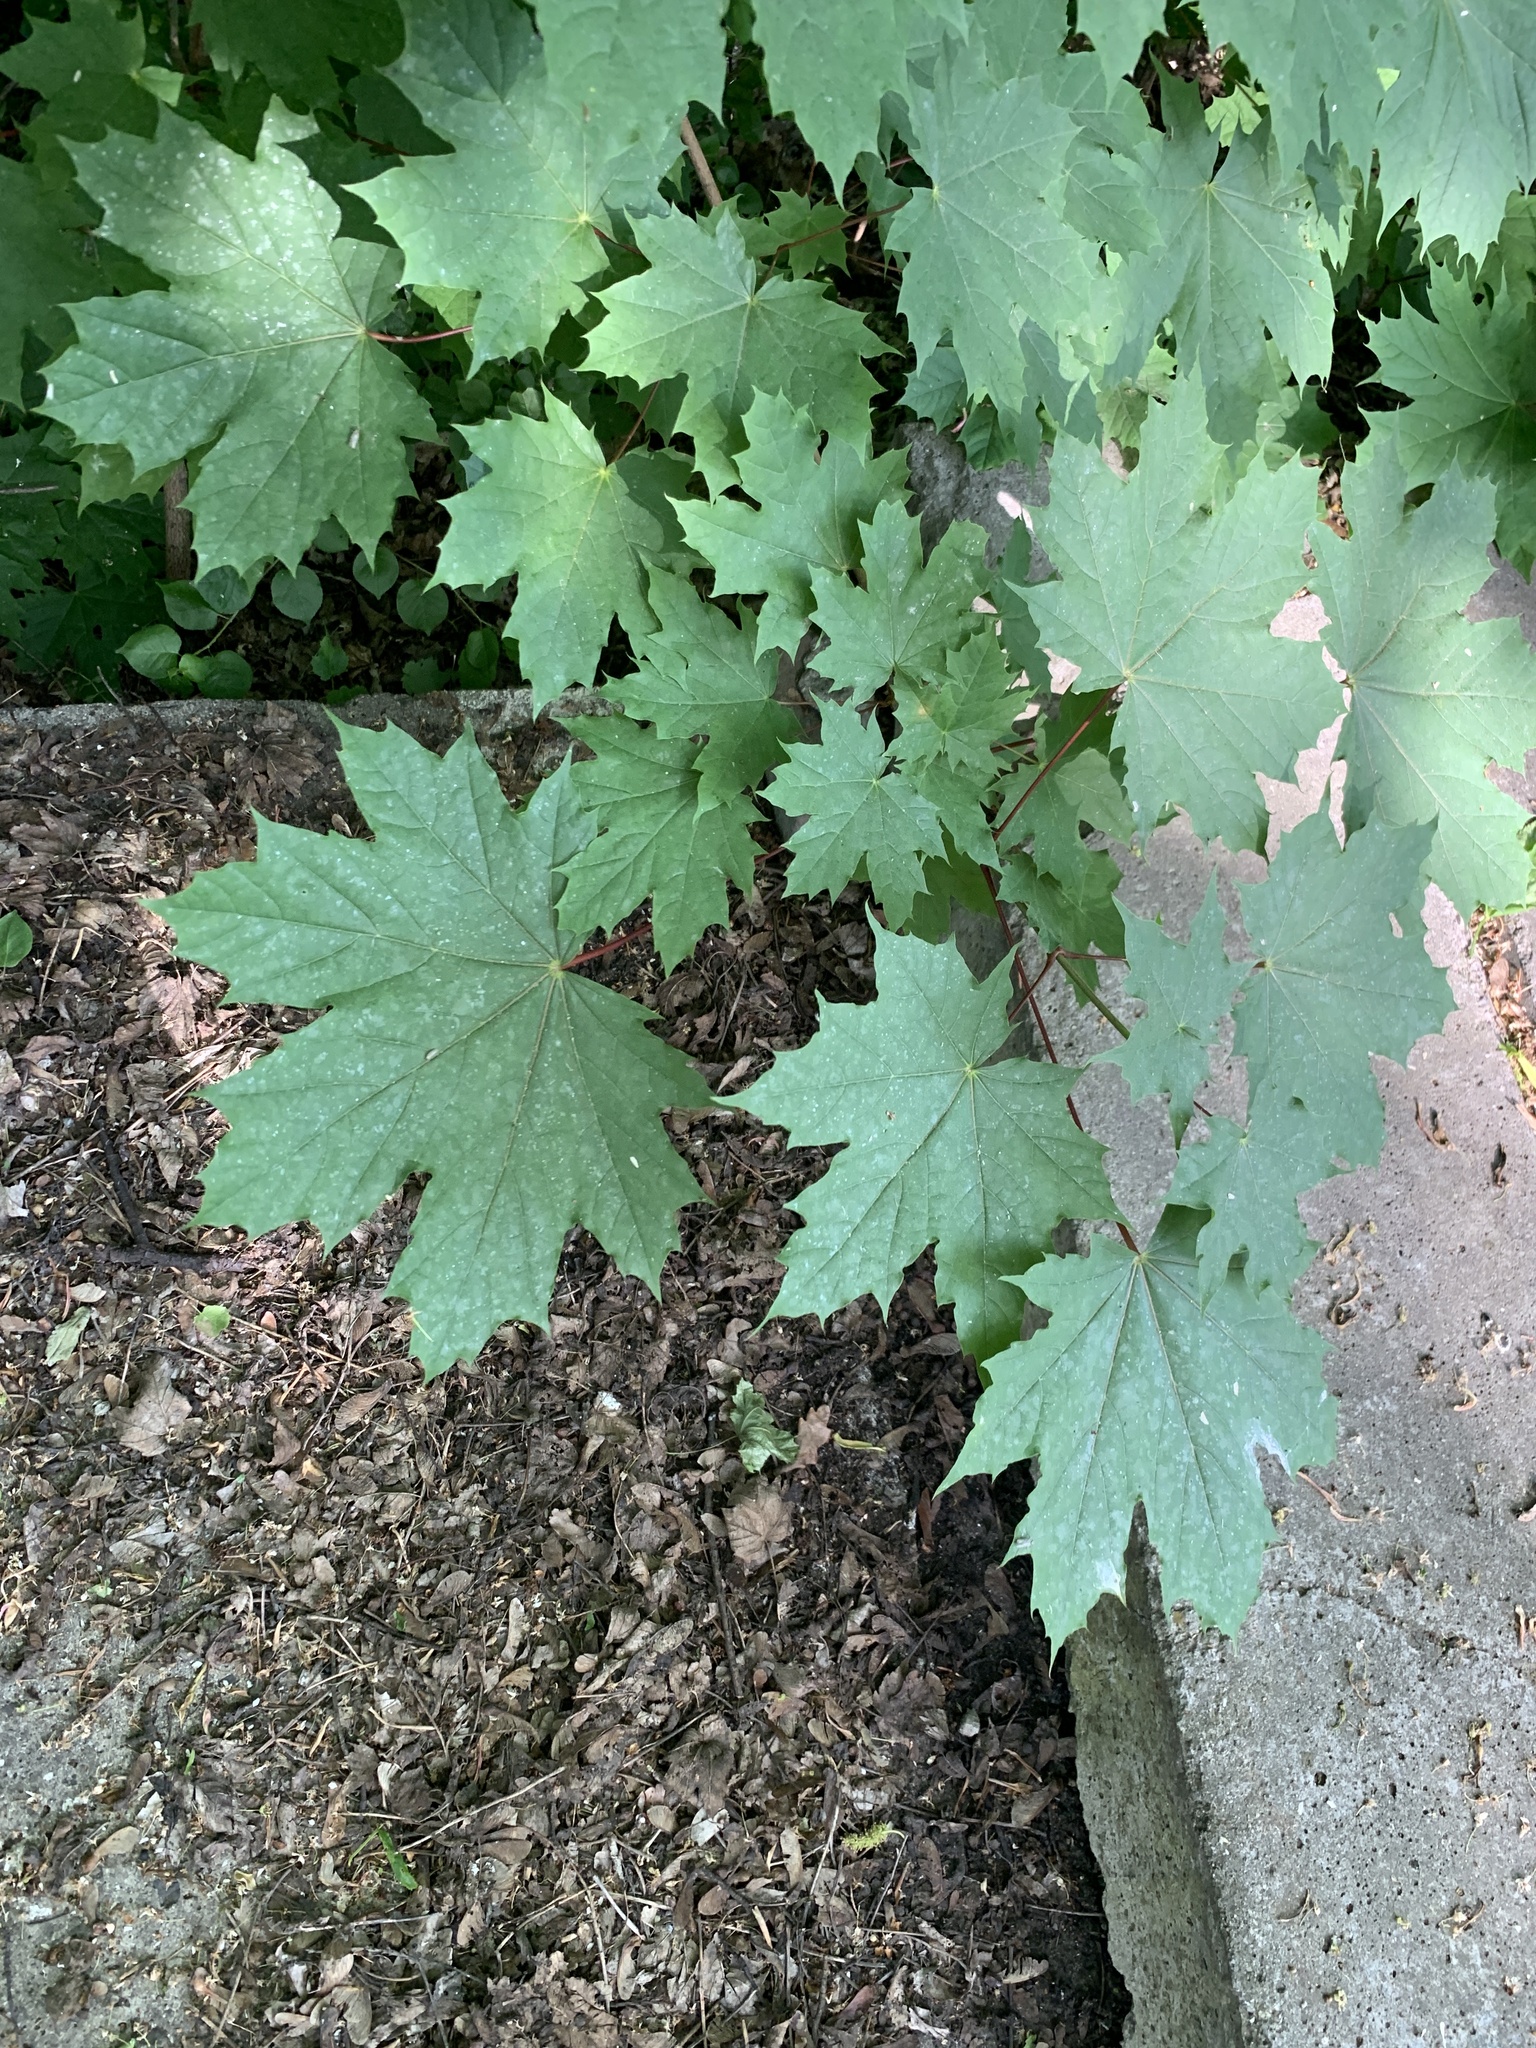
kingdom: Plantae
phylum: Tracheophyta
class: Magnoliopsida
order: Sapindales
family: Sapindaceae
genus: Acer
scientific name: Acer platanoides
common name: Norway maple
